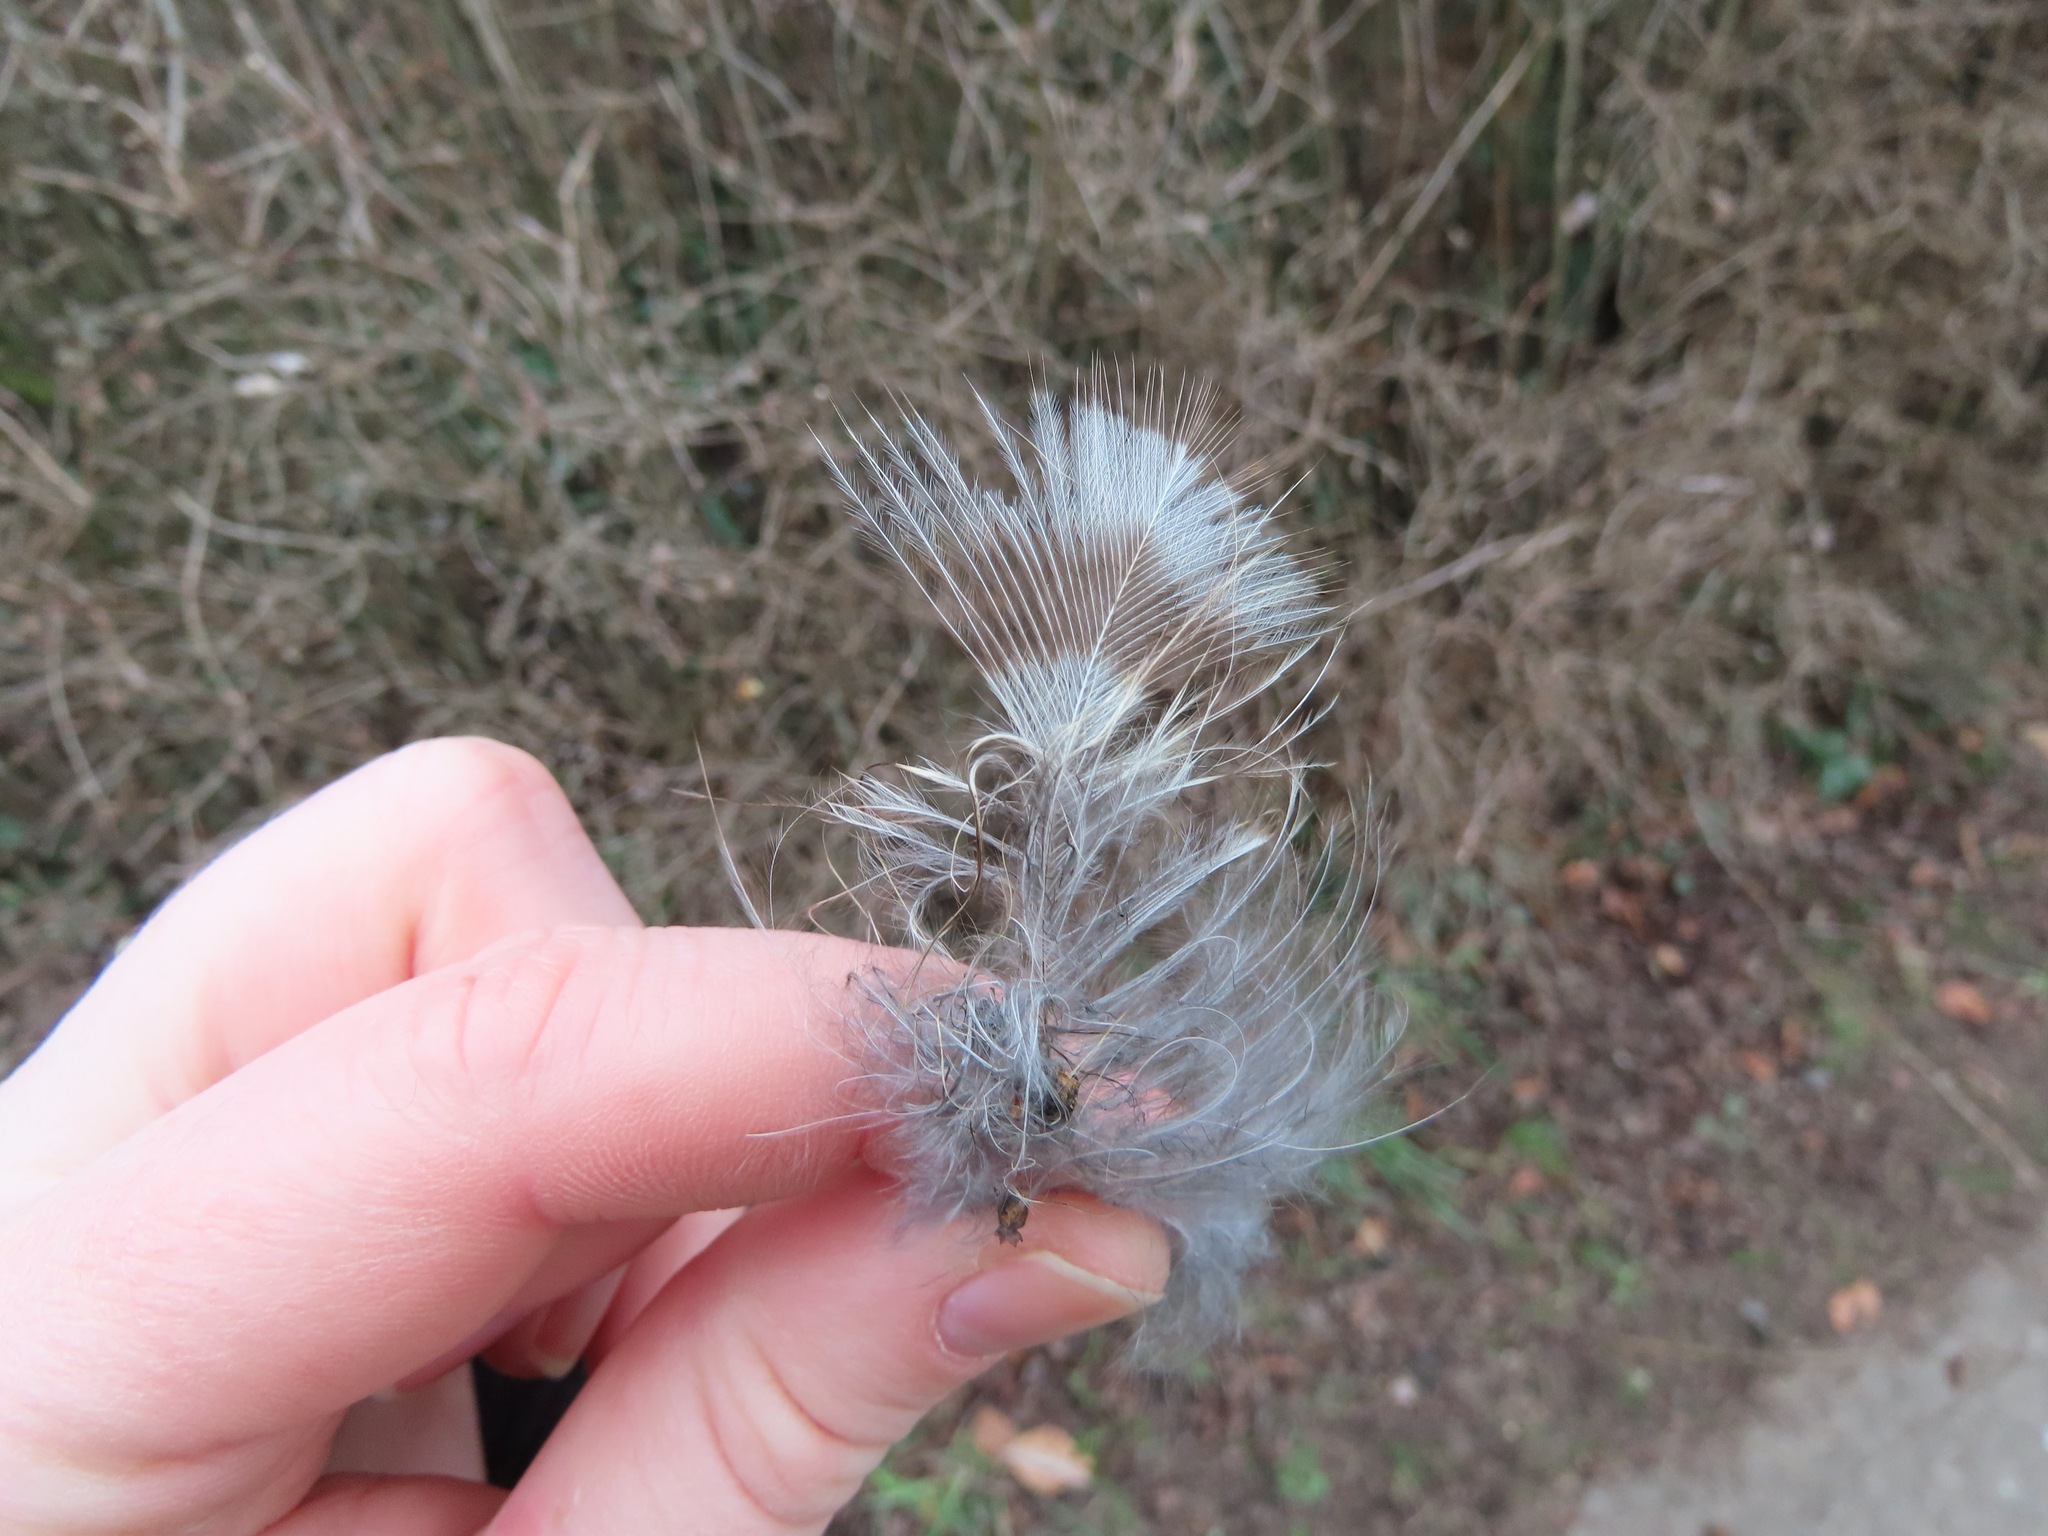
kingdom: Animalia
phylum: Chordata
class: Aves
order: Strigiformes
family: Strigidae
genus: Strix
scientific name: Strix varia
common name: Barred owl
